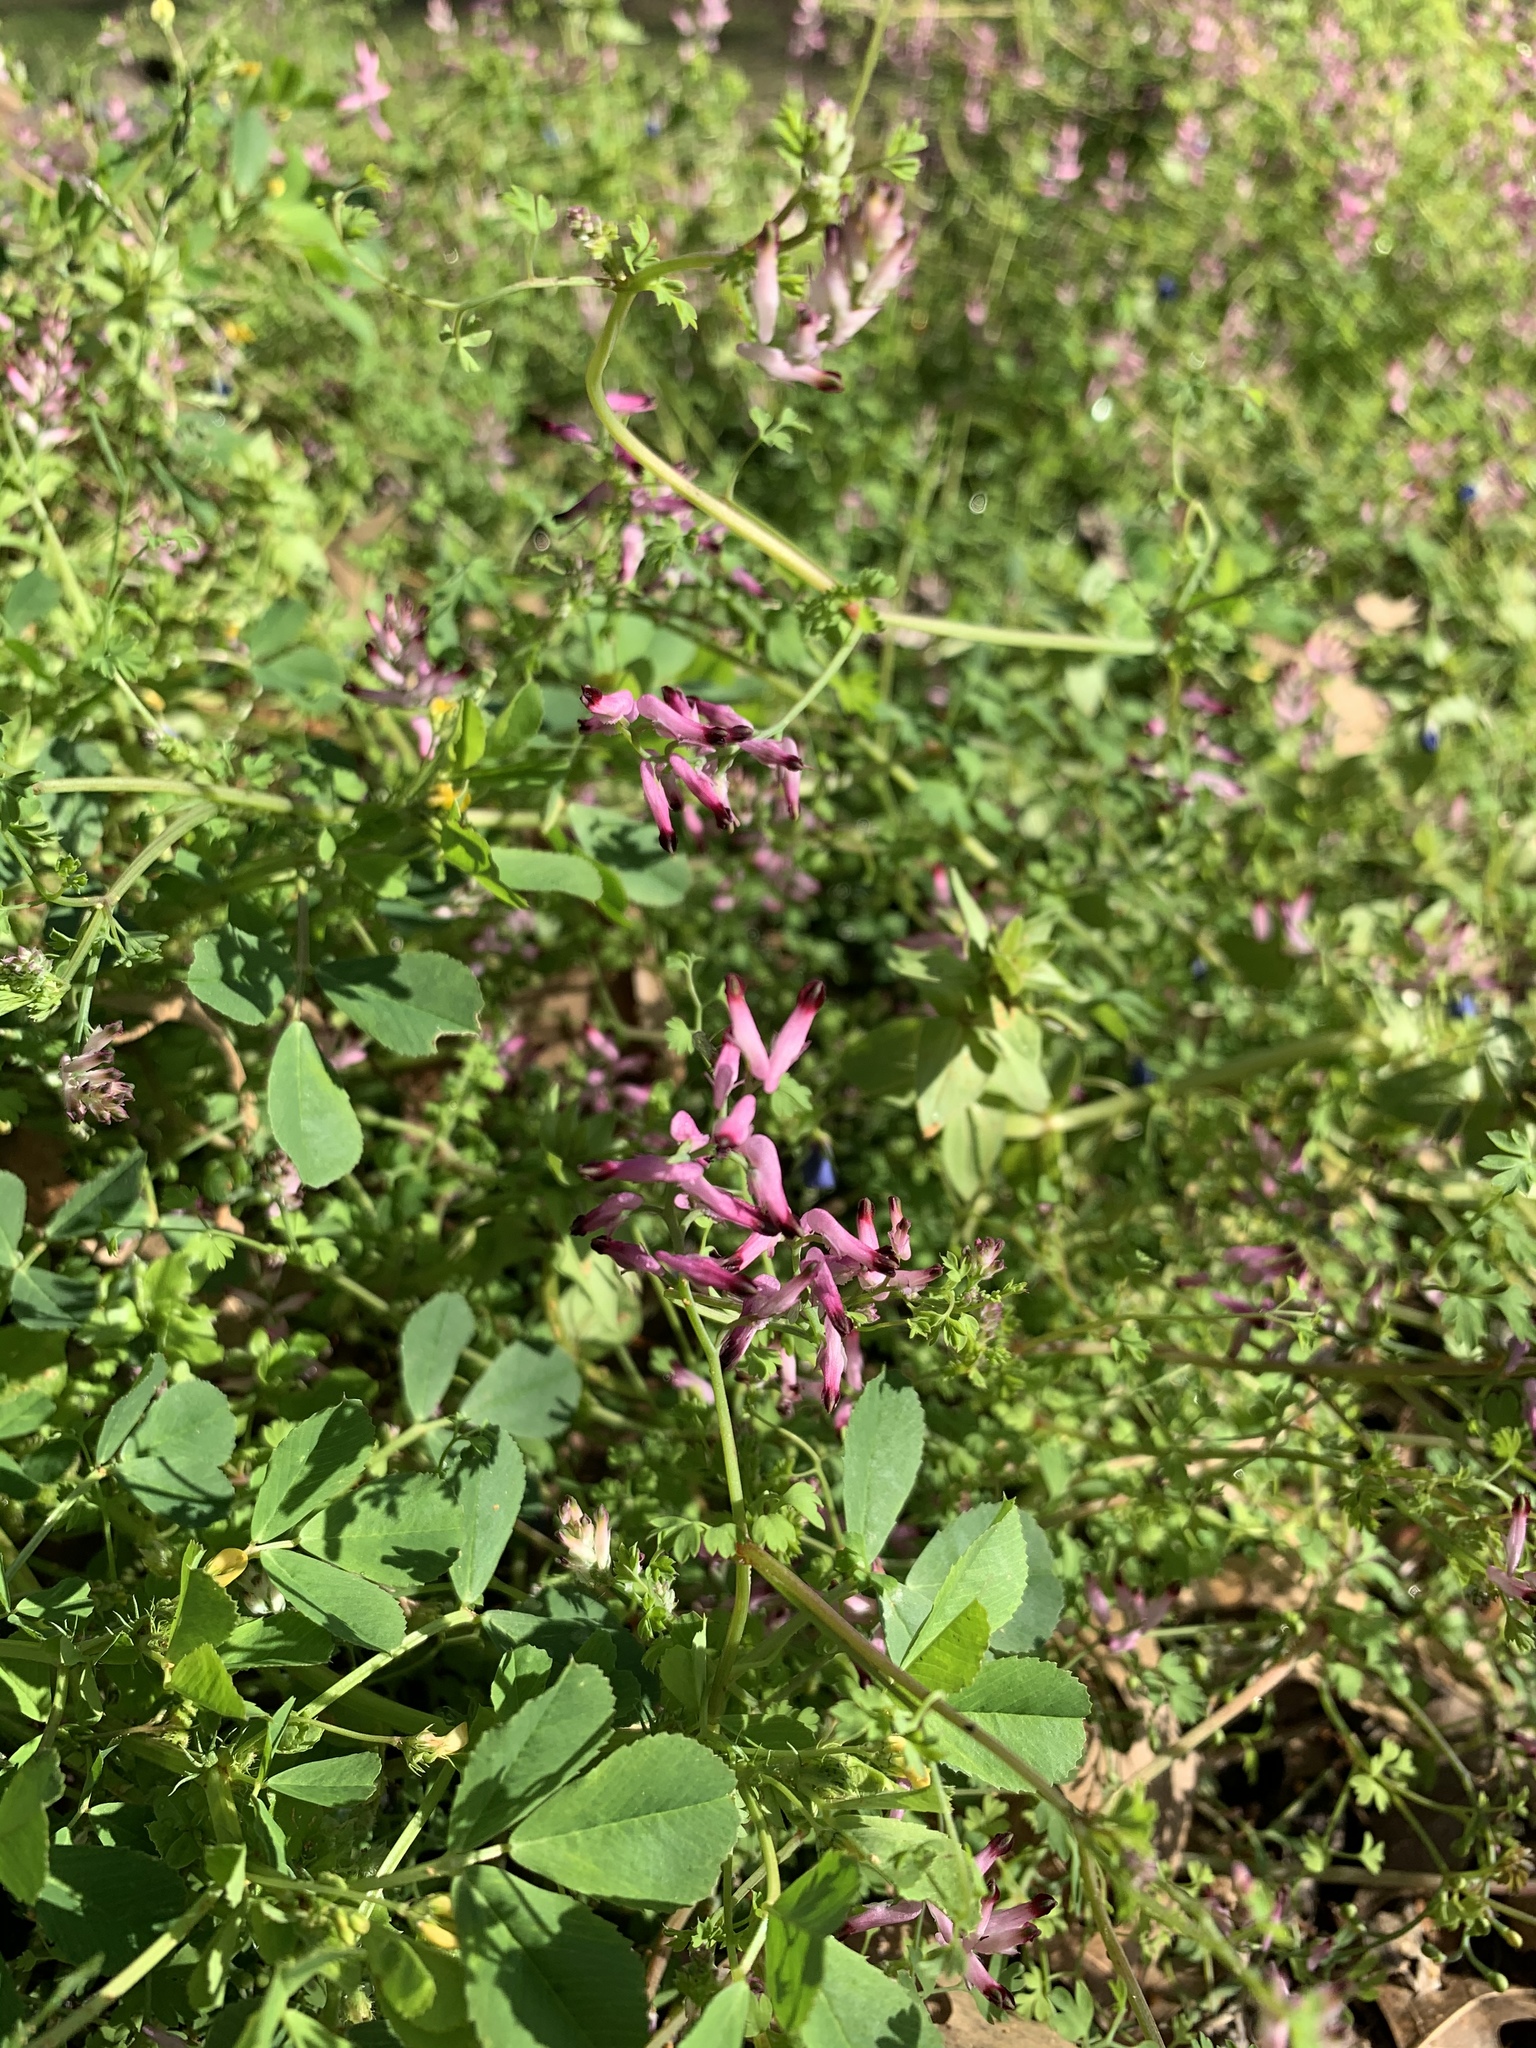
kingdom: Plantae
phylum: Tracheophyta
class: Magnoliopsida
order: Ranunculales
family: Papaveraceae
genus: Fumaria
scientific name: Fumaria muralis
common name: Common ramping-fumitory
